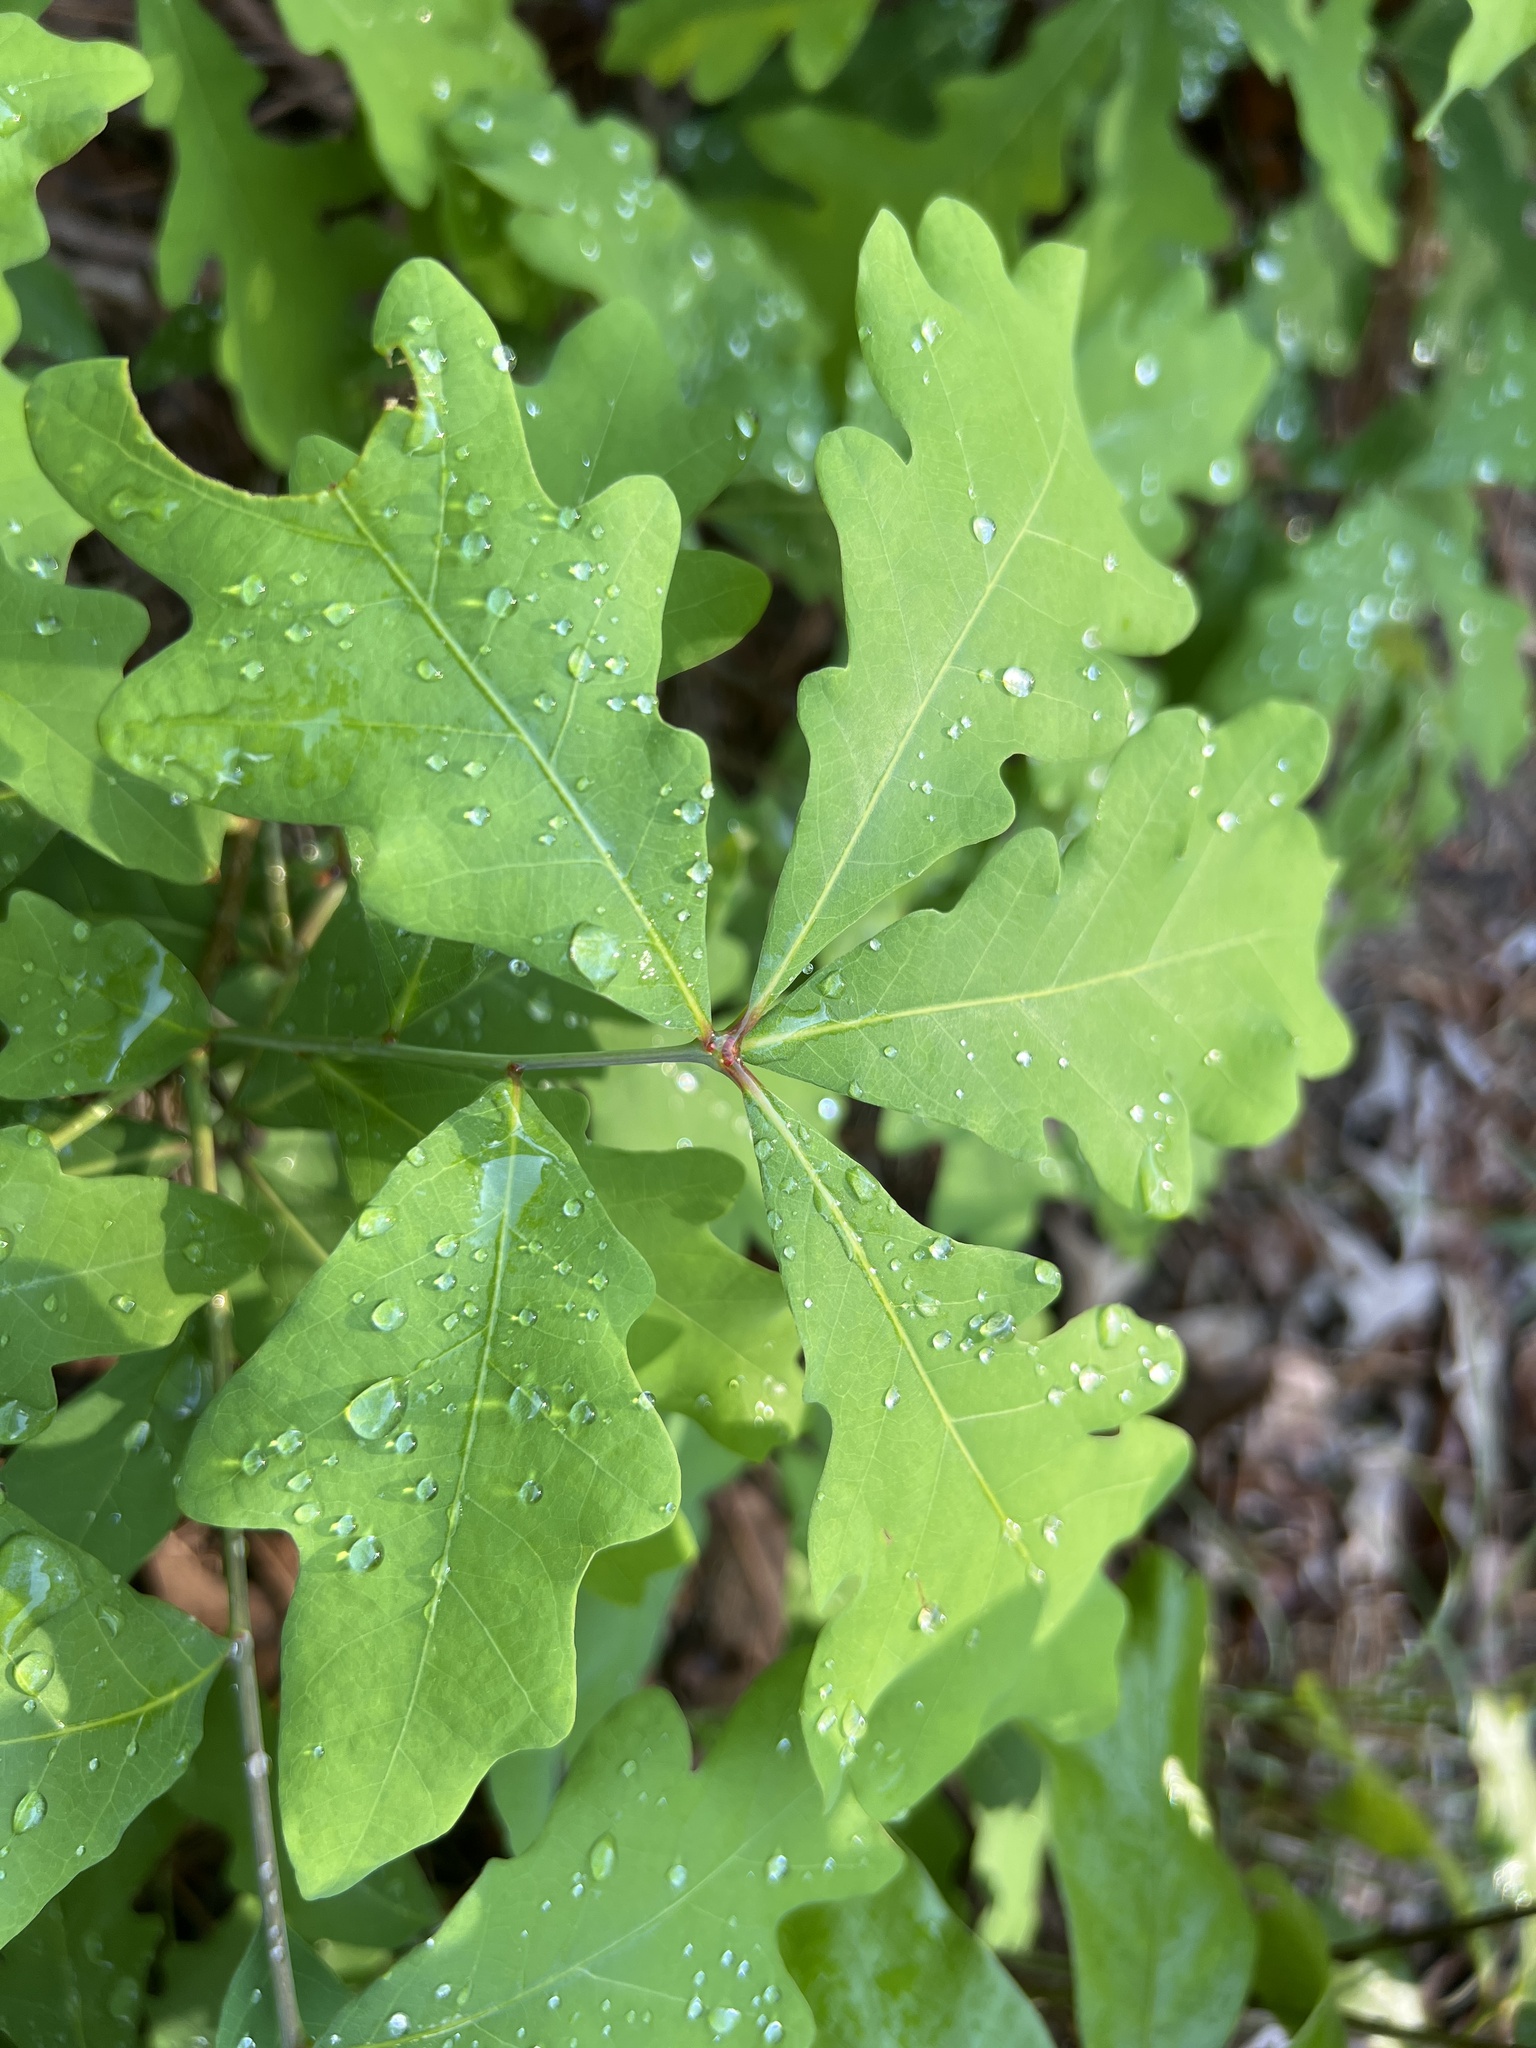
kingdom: Plantae
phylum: Tracheophyta
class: Magnoliopsida
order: Fagales
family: Fagaceae
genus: Quercus
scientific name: Quercus alba
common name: White oak
